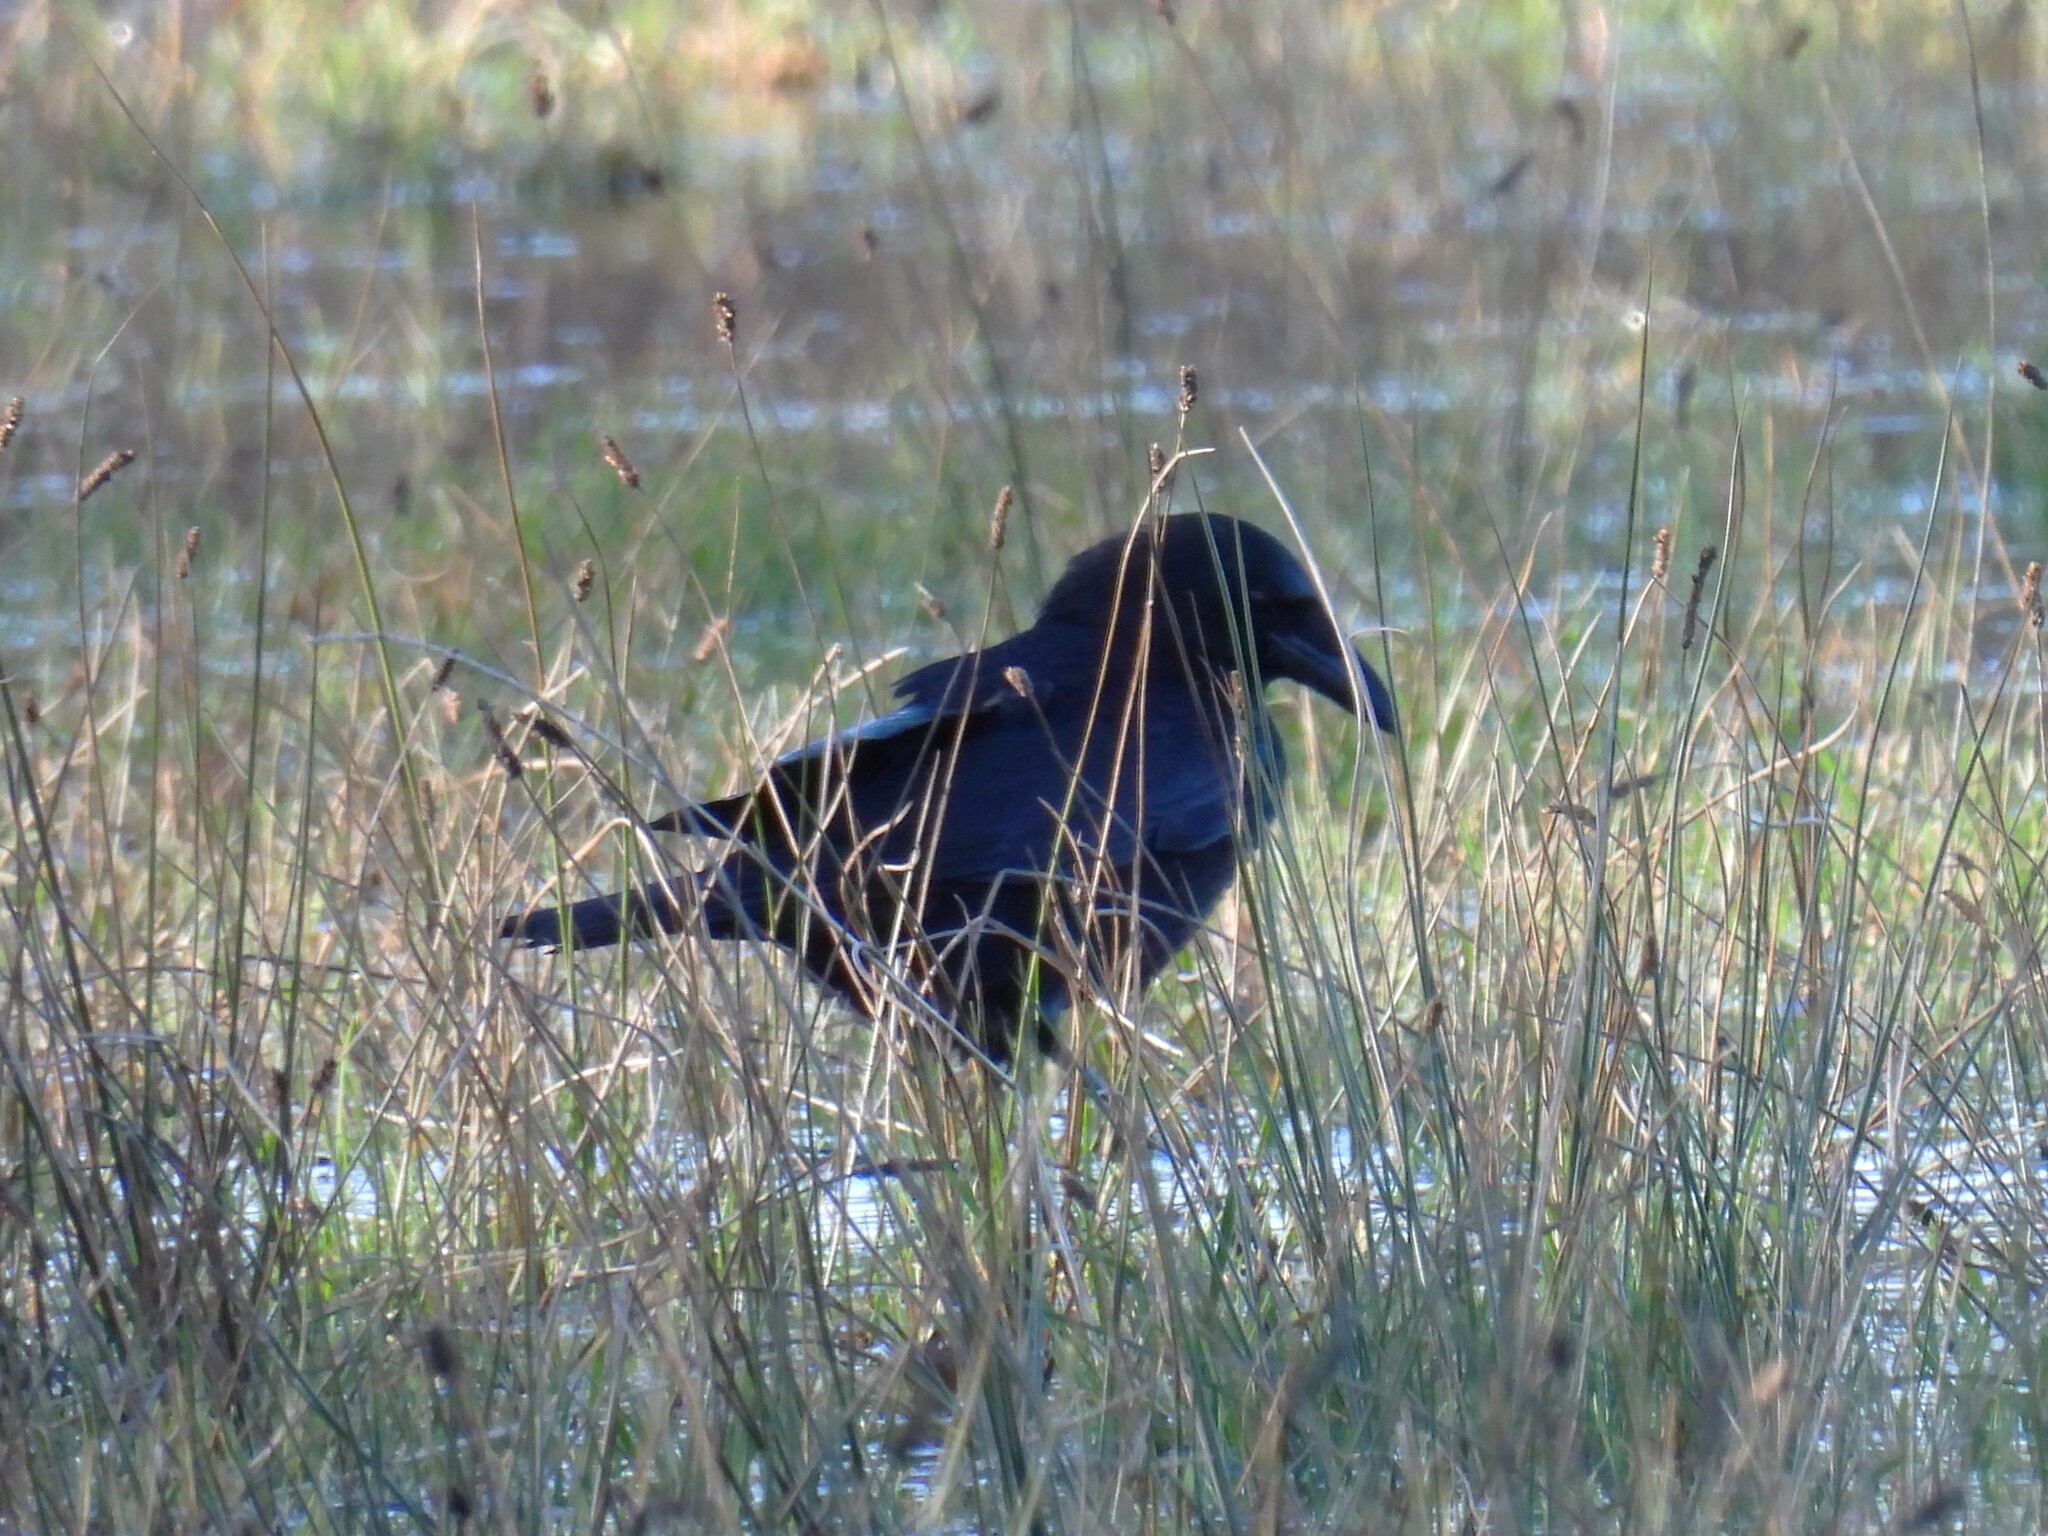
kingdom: Animalia
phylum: Chordata
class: Aves
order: Passeriformes
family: Corvidae
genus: Corvus
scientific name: Corvus corone
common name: Carrion crow
